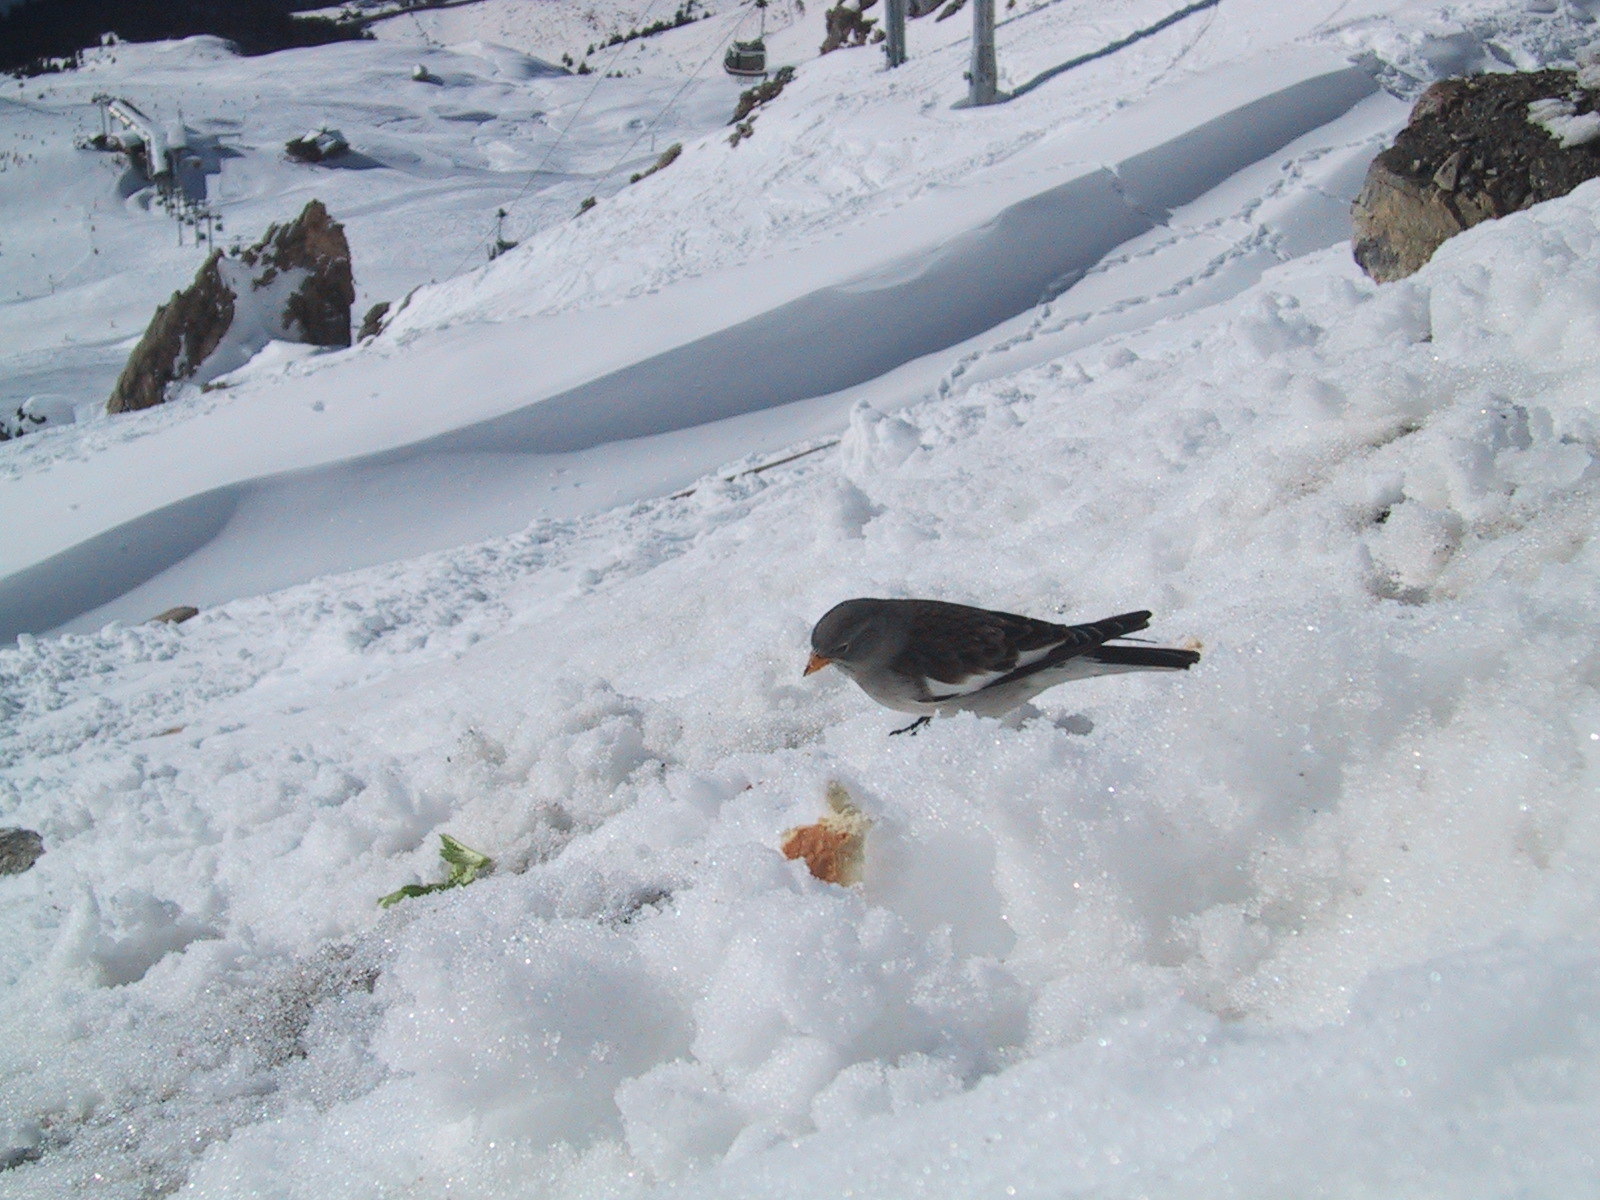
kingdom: Animalia
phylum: Chordata
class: Aves
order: Passeriformes
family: Passeridae
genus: Montifringilla
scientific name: Montifringilla nivalis
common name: White-winged snowfinch
